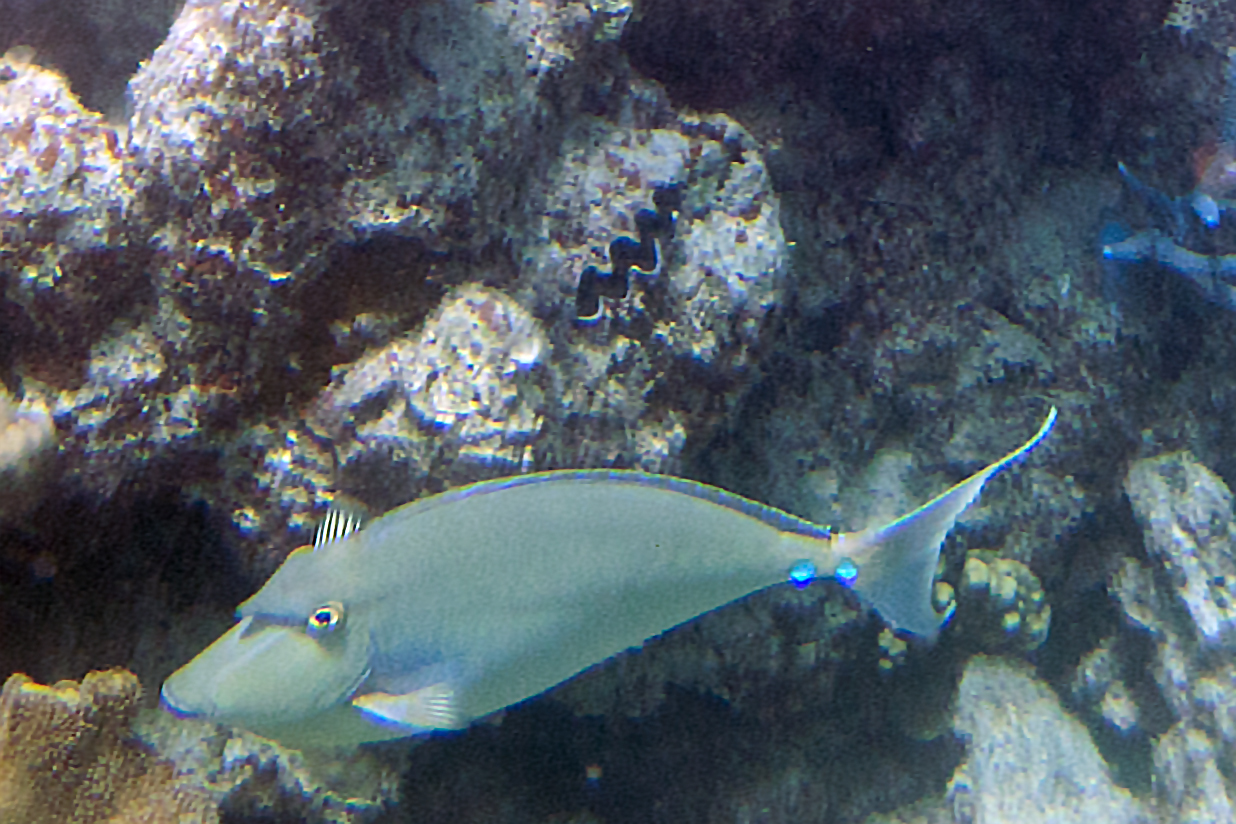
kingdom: Animalia
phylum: Chordata
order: Perciformes
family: Acanthuridae
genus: Naso
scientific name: Naso unicornis
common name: Bluespine unicornfish
